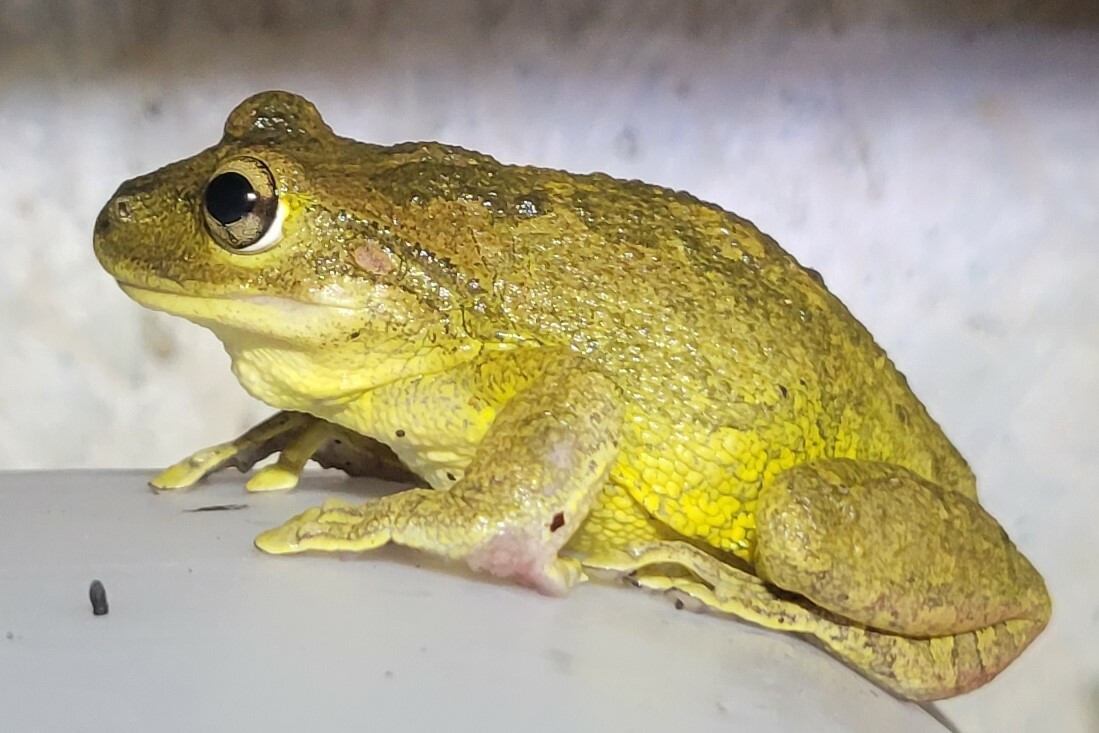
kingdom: Animalia
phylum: Chordata
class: Amphibia
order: Anura
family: Hylidae
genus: Osteopilus
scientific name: Osteopilus septentrionalis
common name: Cuban treefrog
